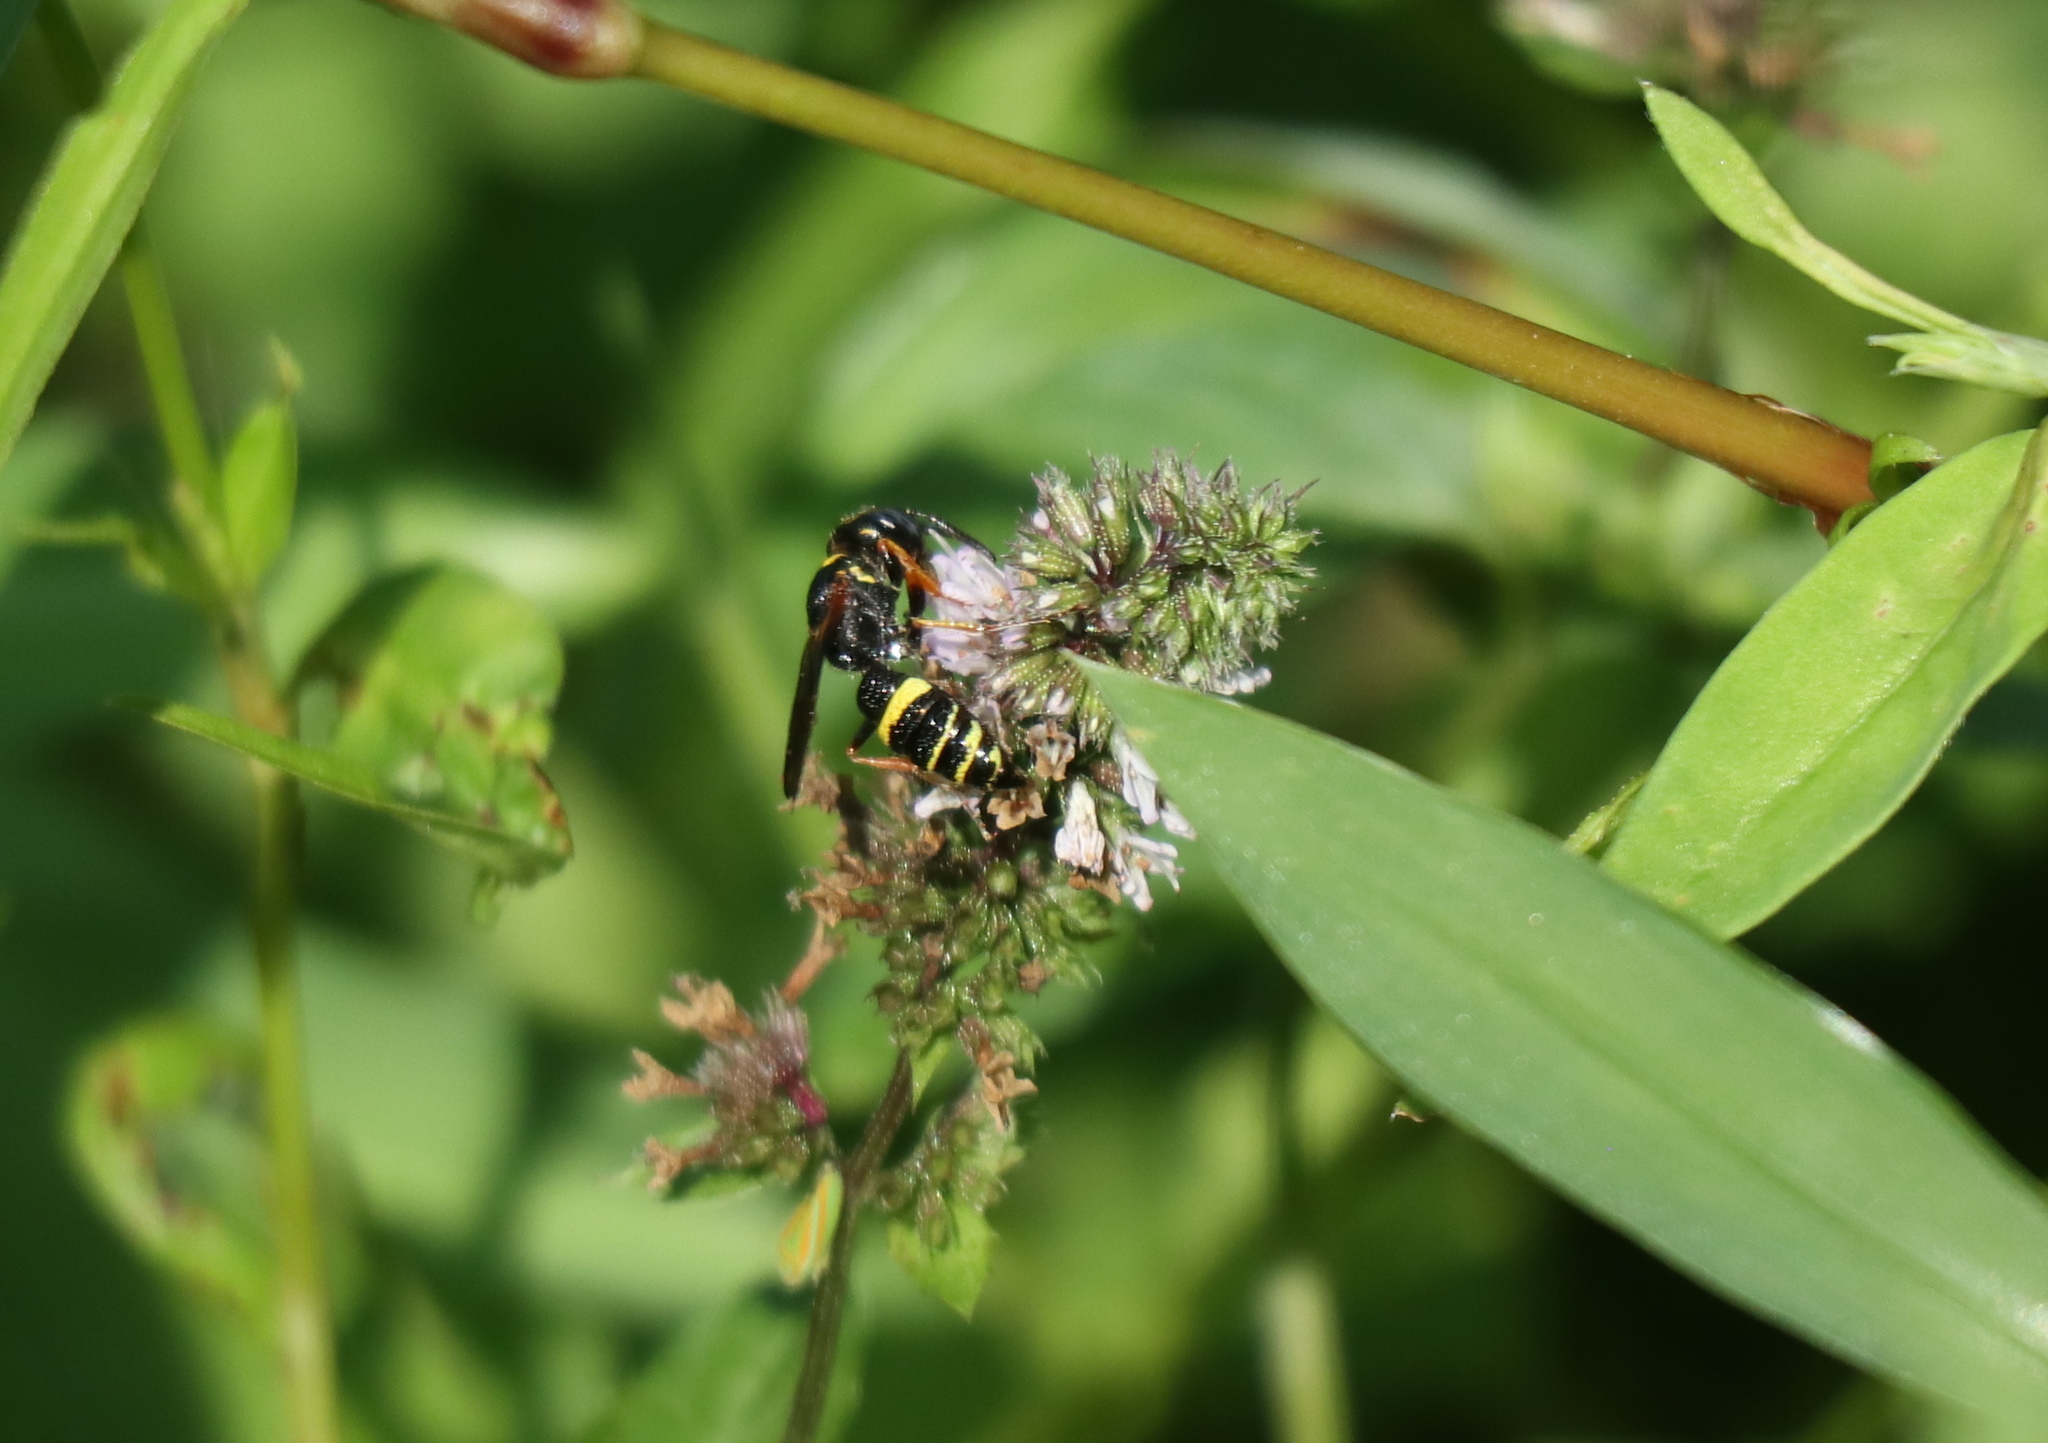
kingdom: Animalia
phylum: Arthropoda
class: Insecta
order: Hymenoptera
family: Crabronidae
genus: Philanthus
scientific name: Philanthus gibbosus
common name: Humped beewolf
